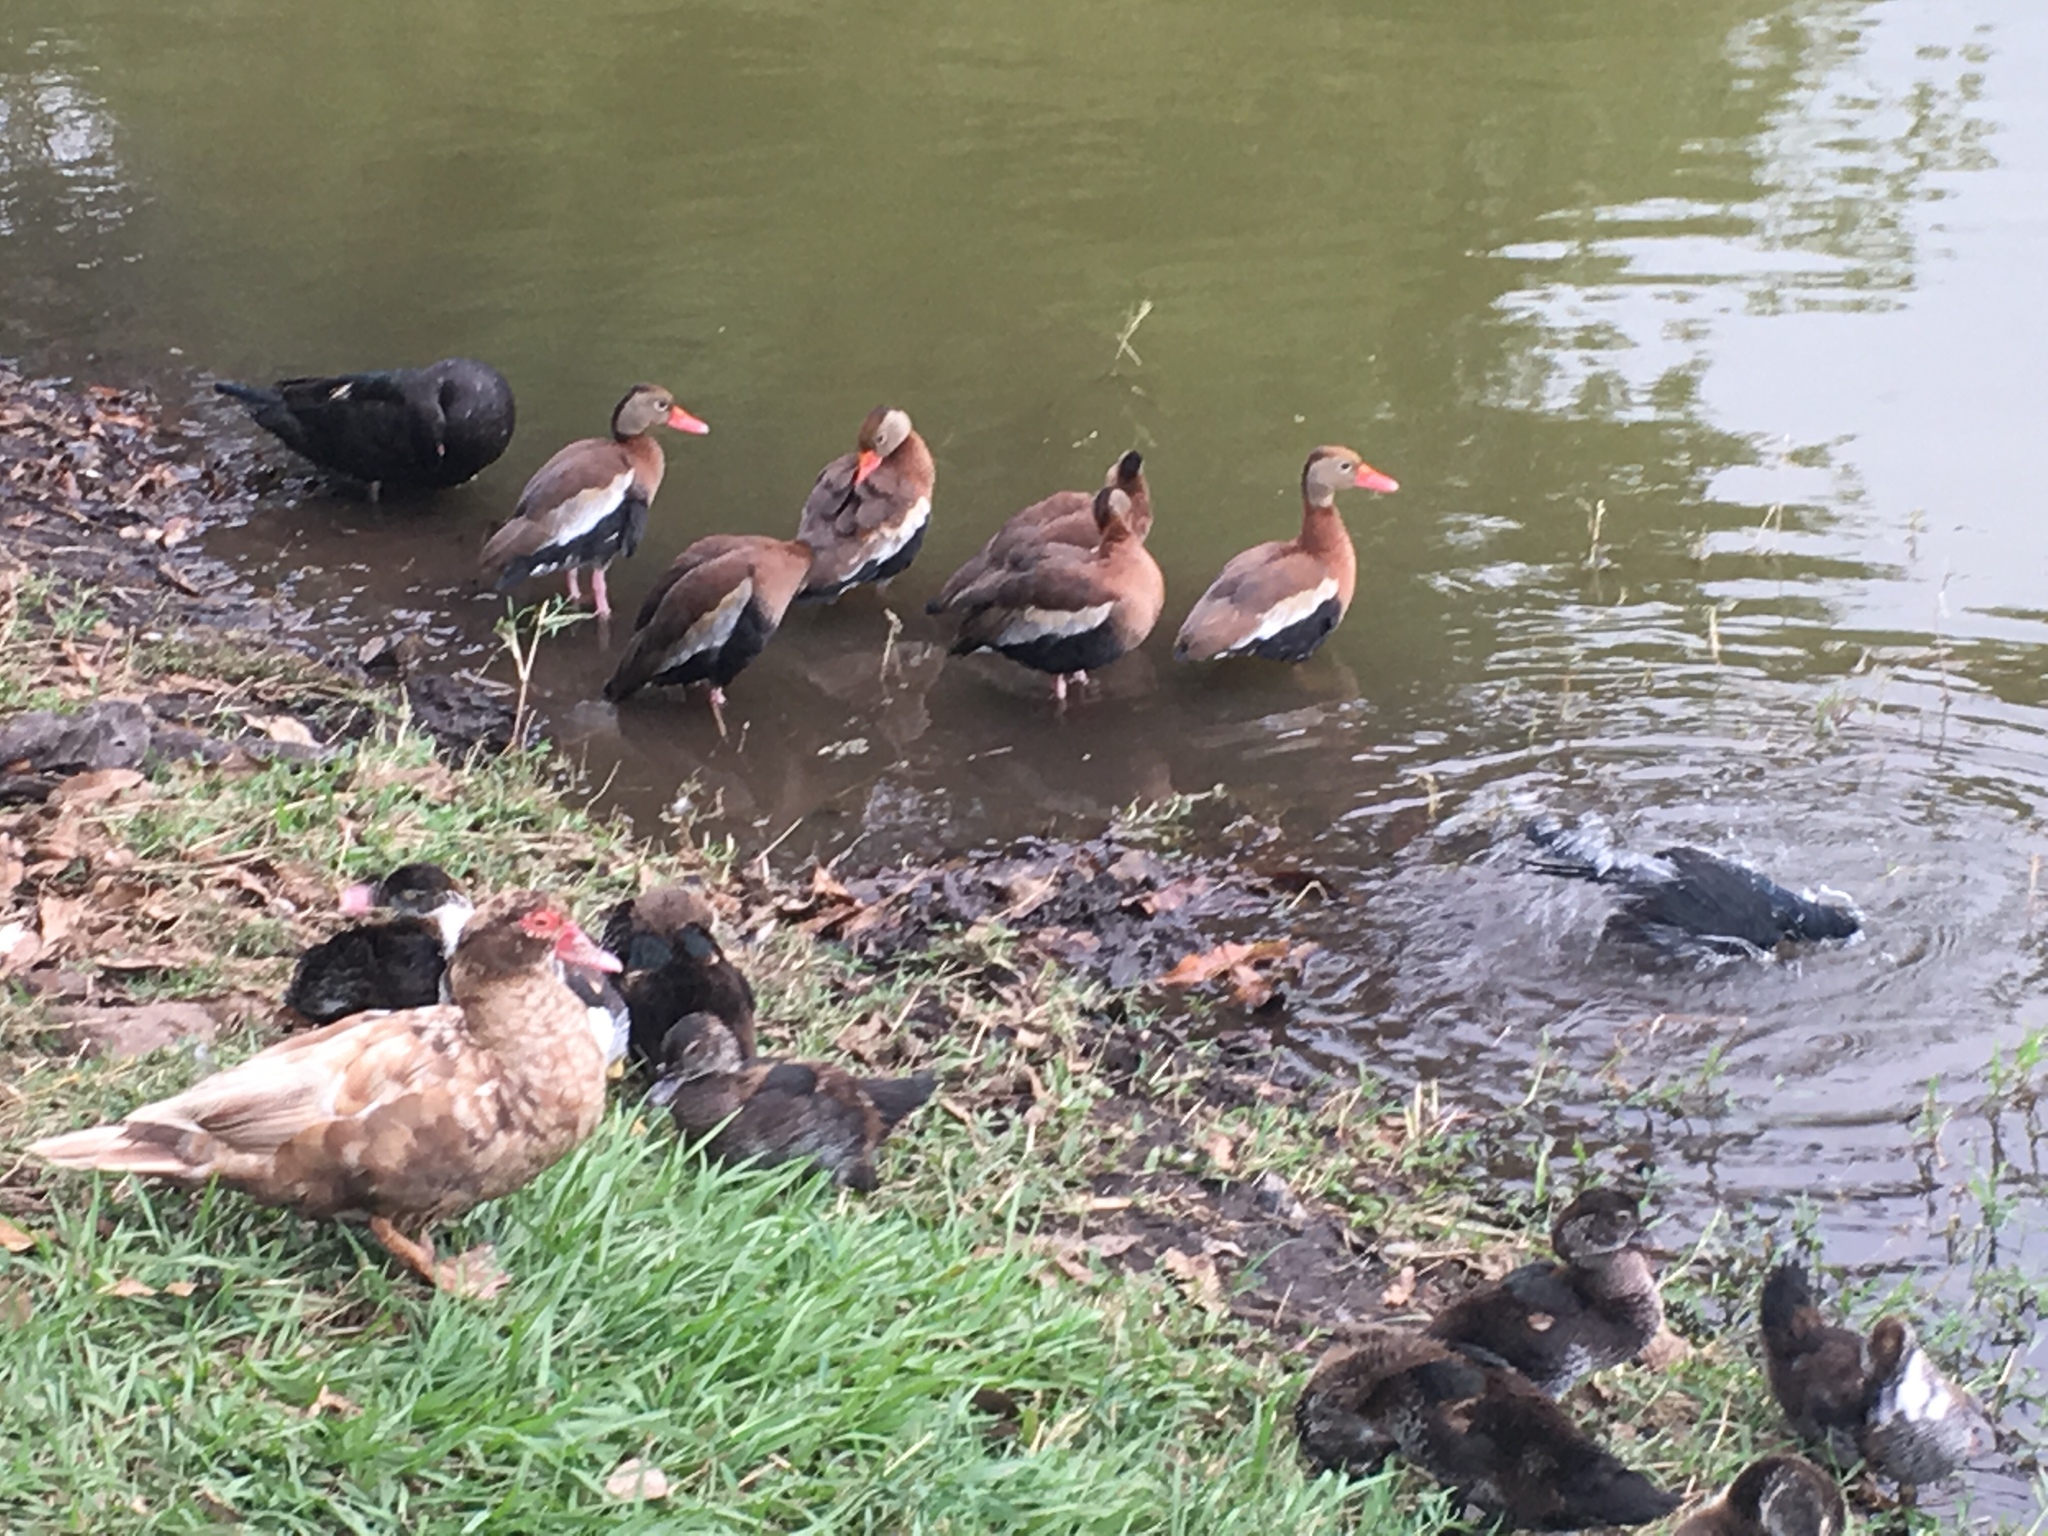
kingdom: Animalia
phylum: Chordata
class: Aves
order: Anseriformes
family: Anatidae
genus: Dendrocygna
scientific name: Dendrocygna autumnalis
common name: Black-bellied whistling duck
